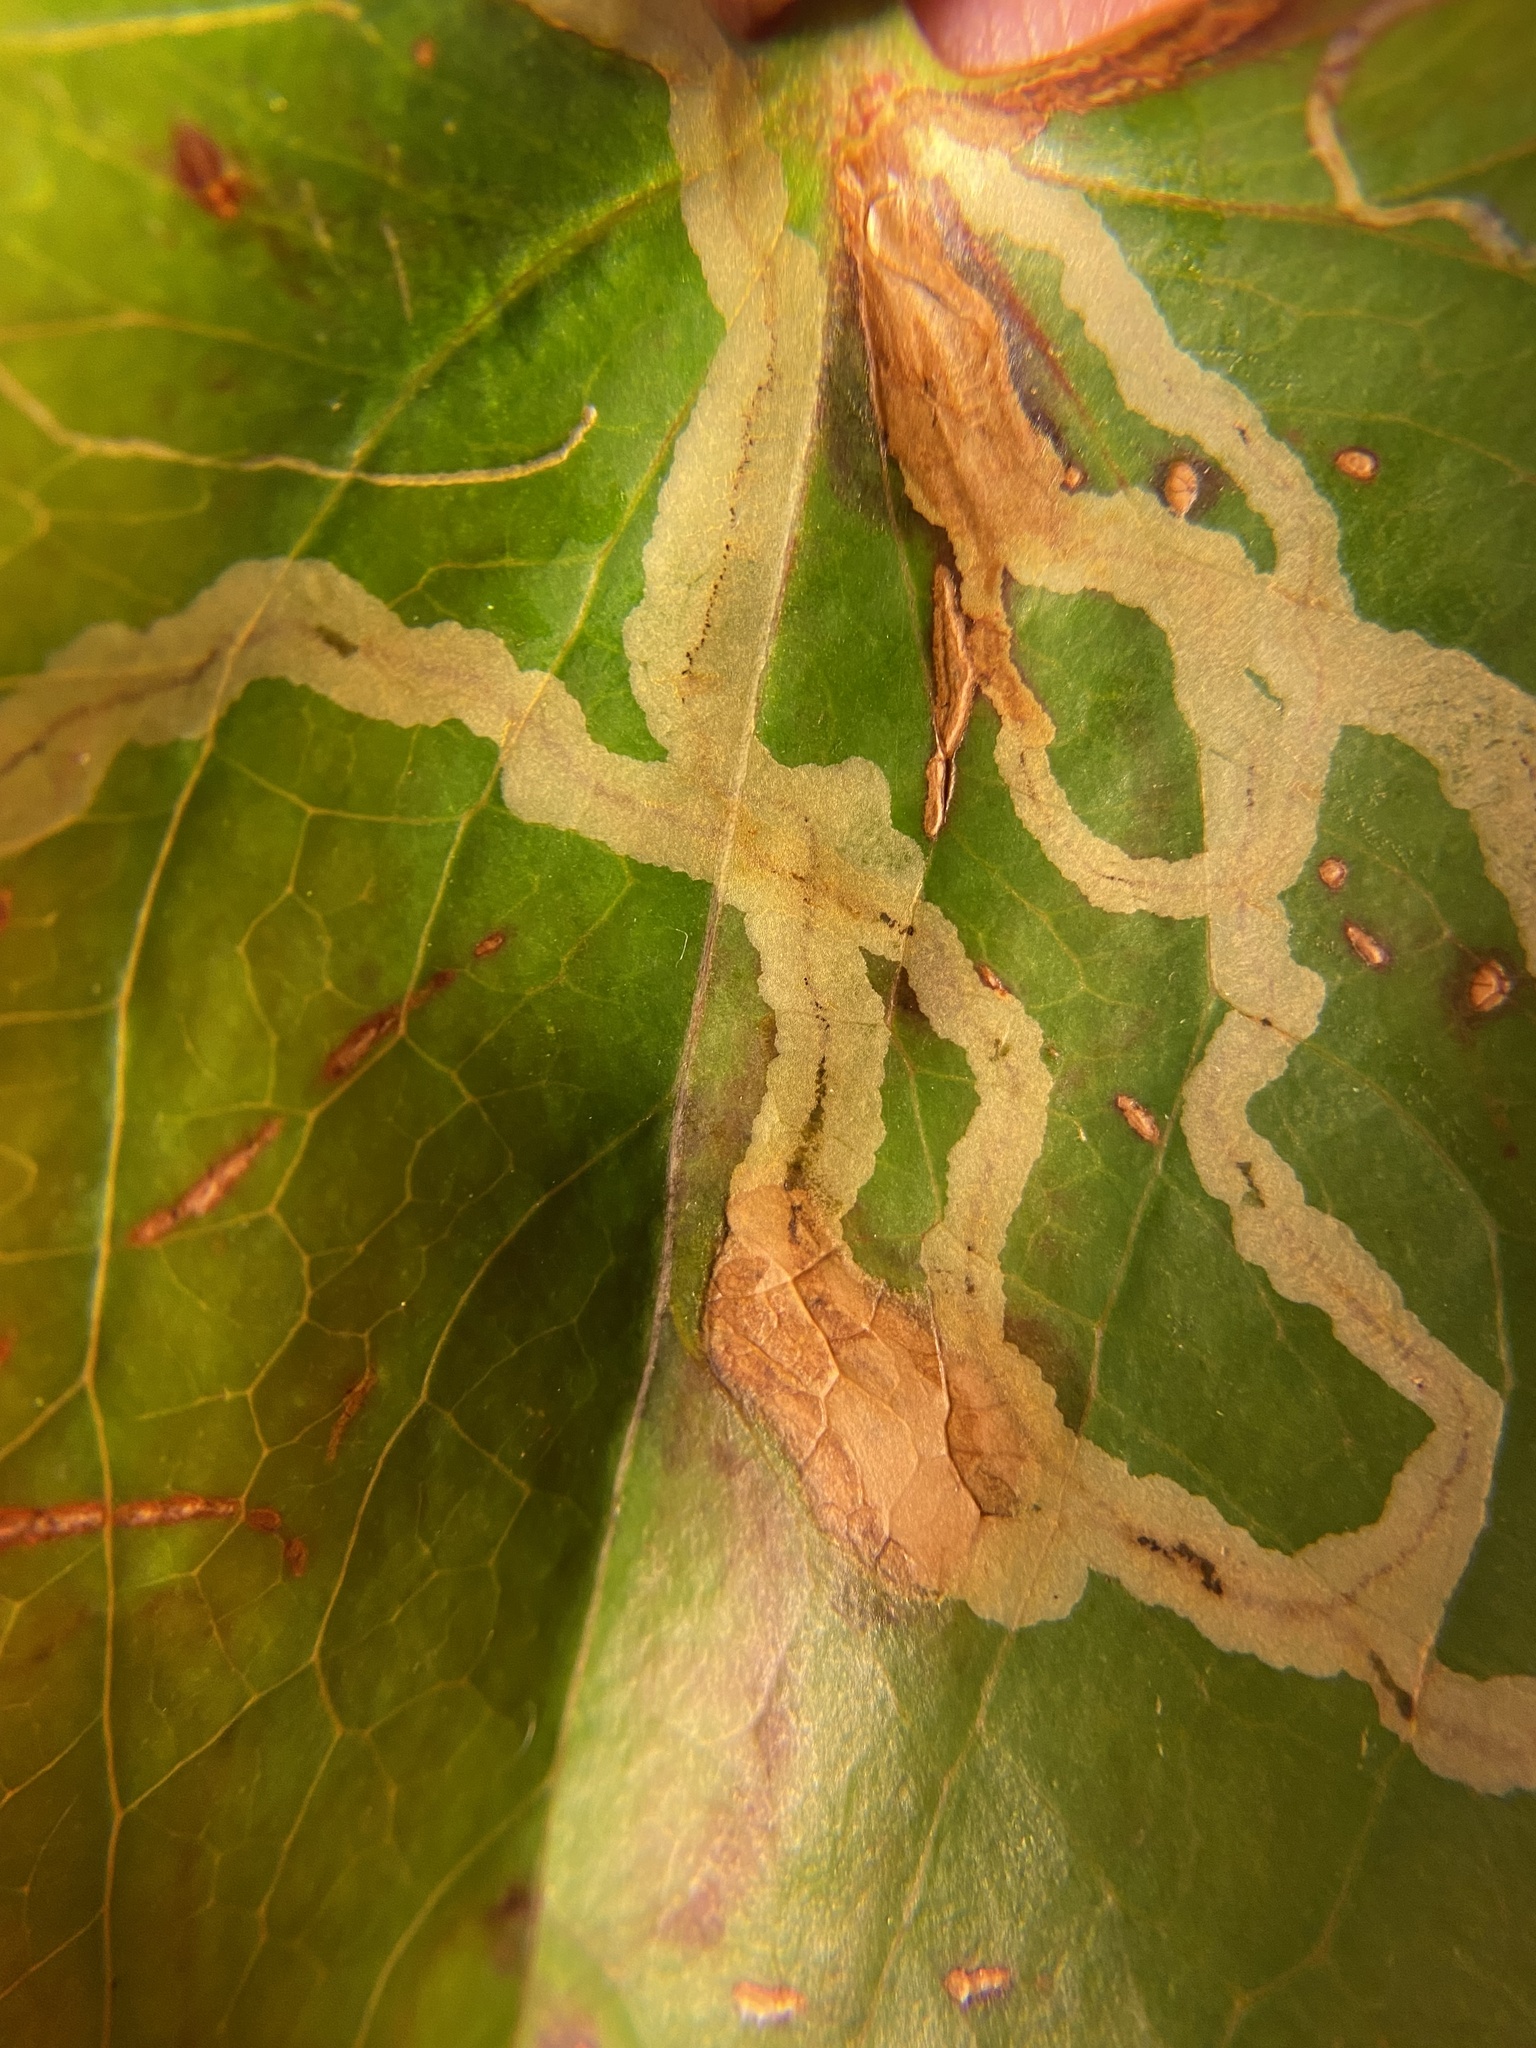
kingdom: Animalia
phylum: Arthropoda
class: Insecta
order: Lepidoptera
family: Gracillariidae
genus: Marmara
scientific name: Marmara smilacisella
